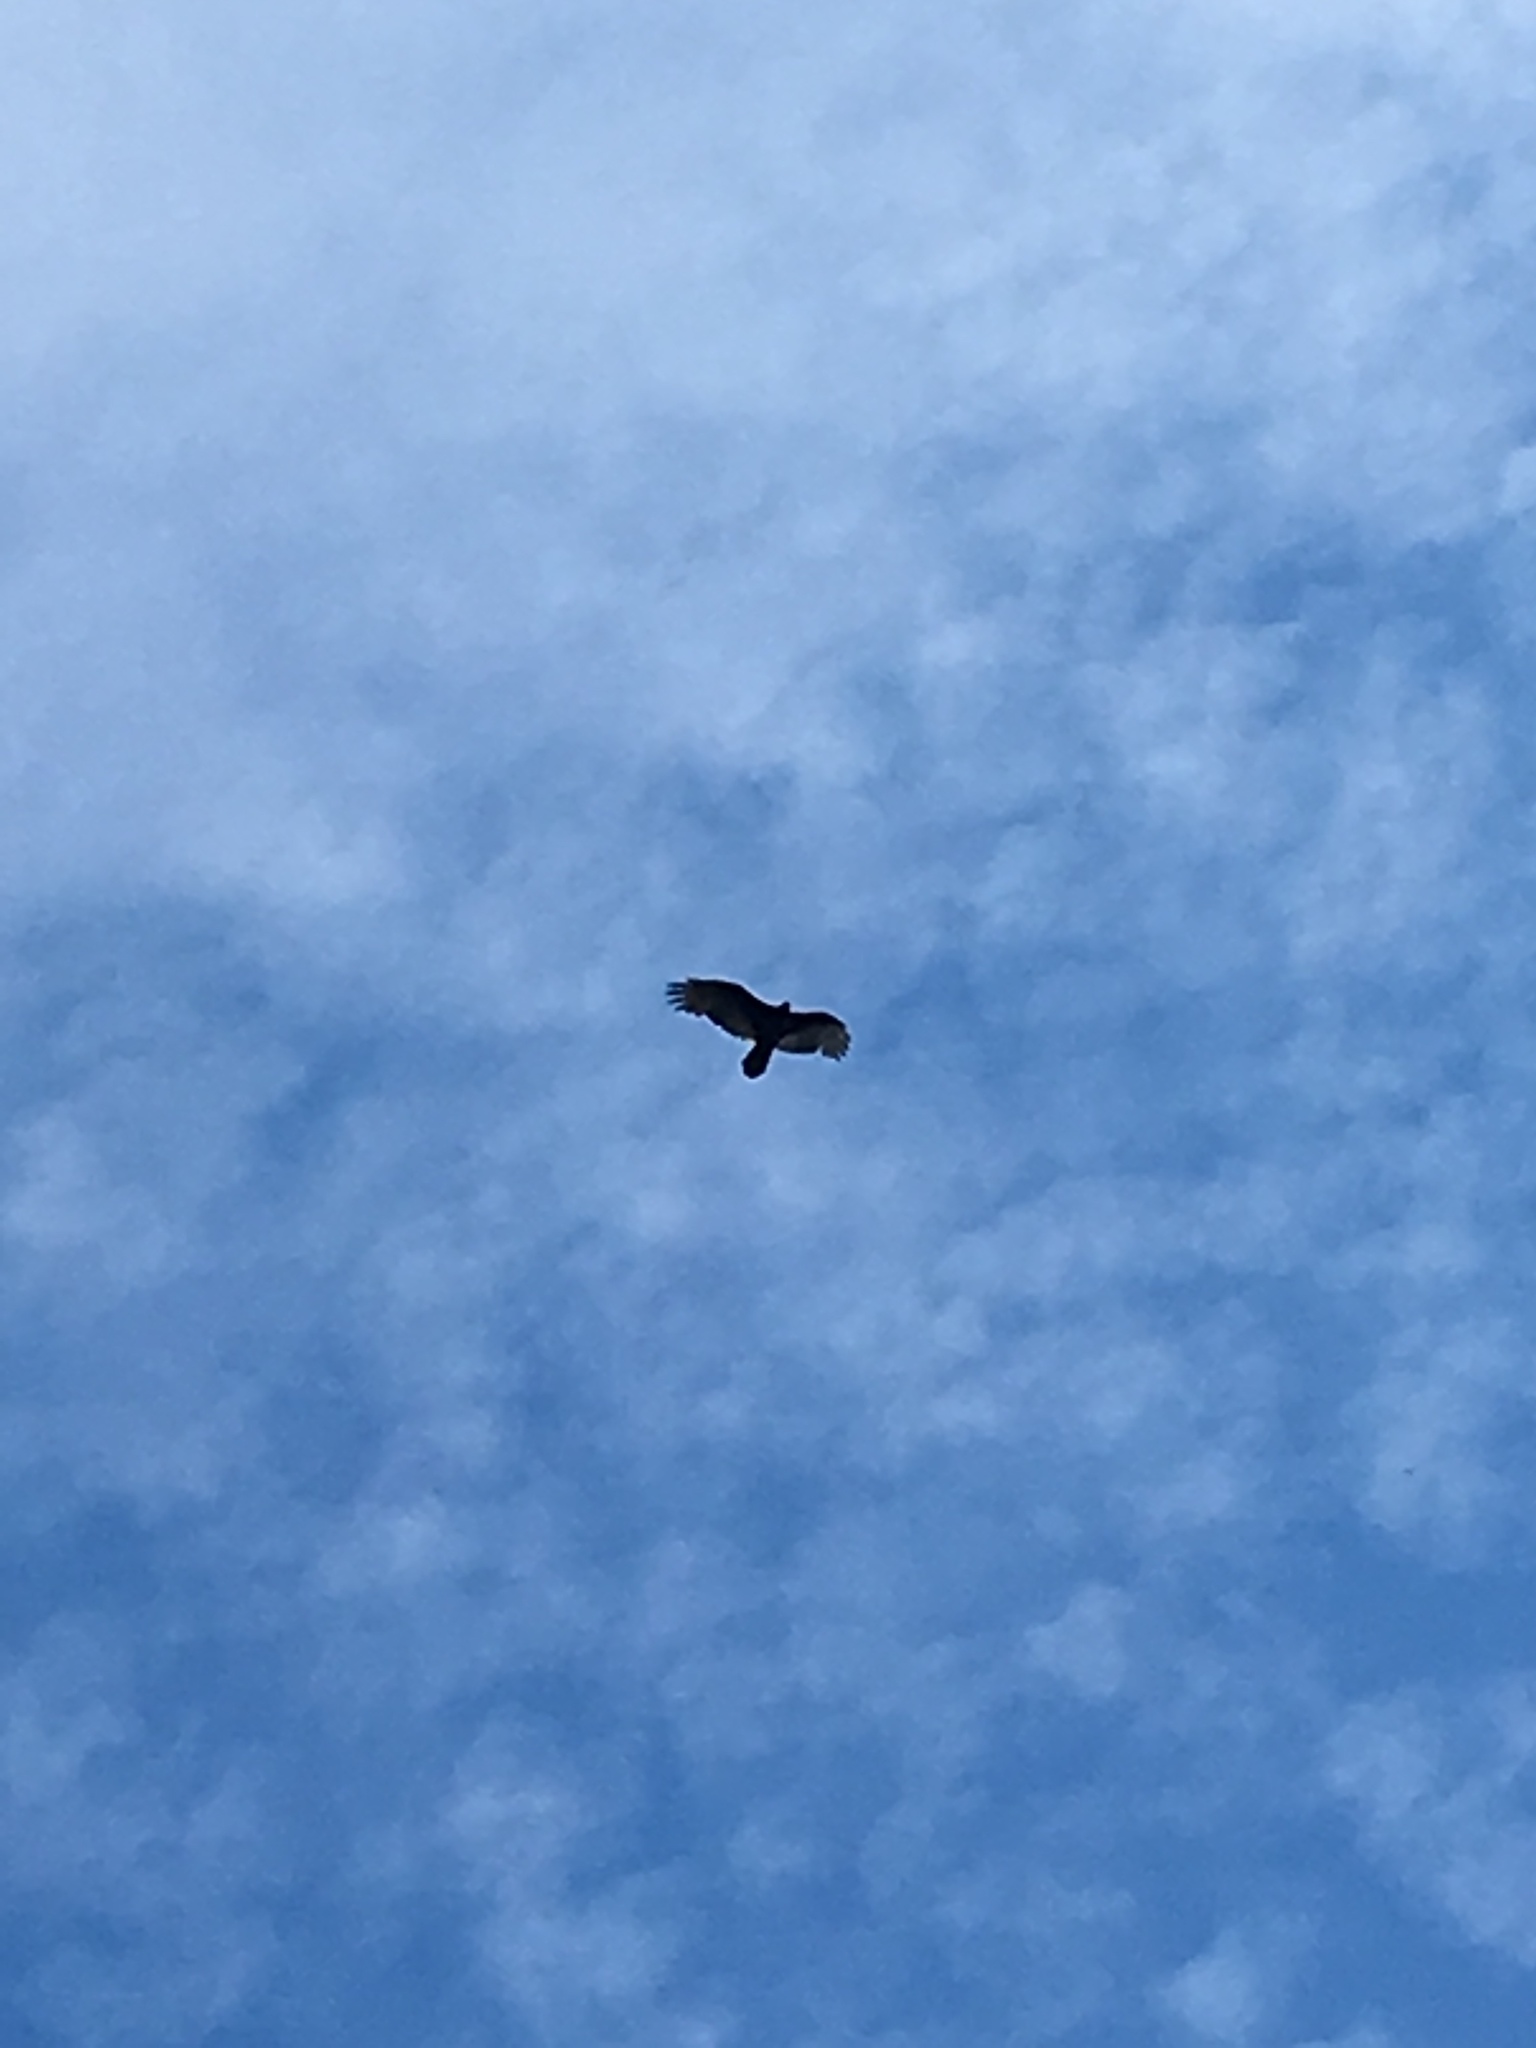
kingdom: Animalia
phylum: Chordata
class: Aves
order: Accipitriformes
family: Cathartidae
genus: Cathartes
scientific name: Cathartes aura
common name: Turkey vulture
